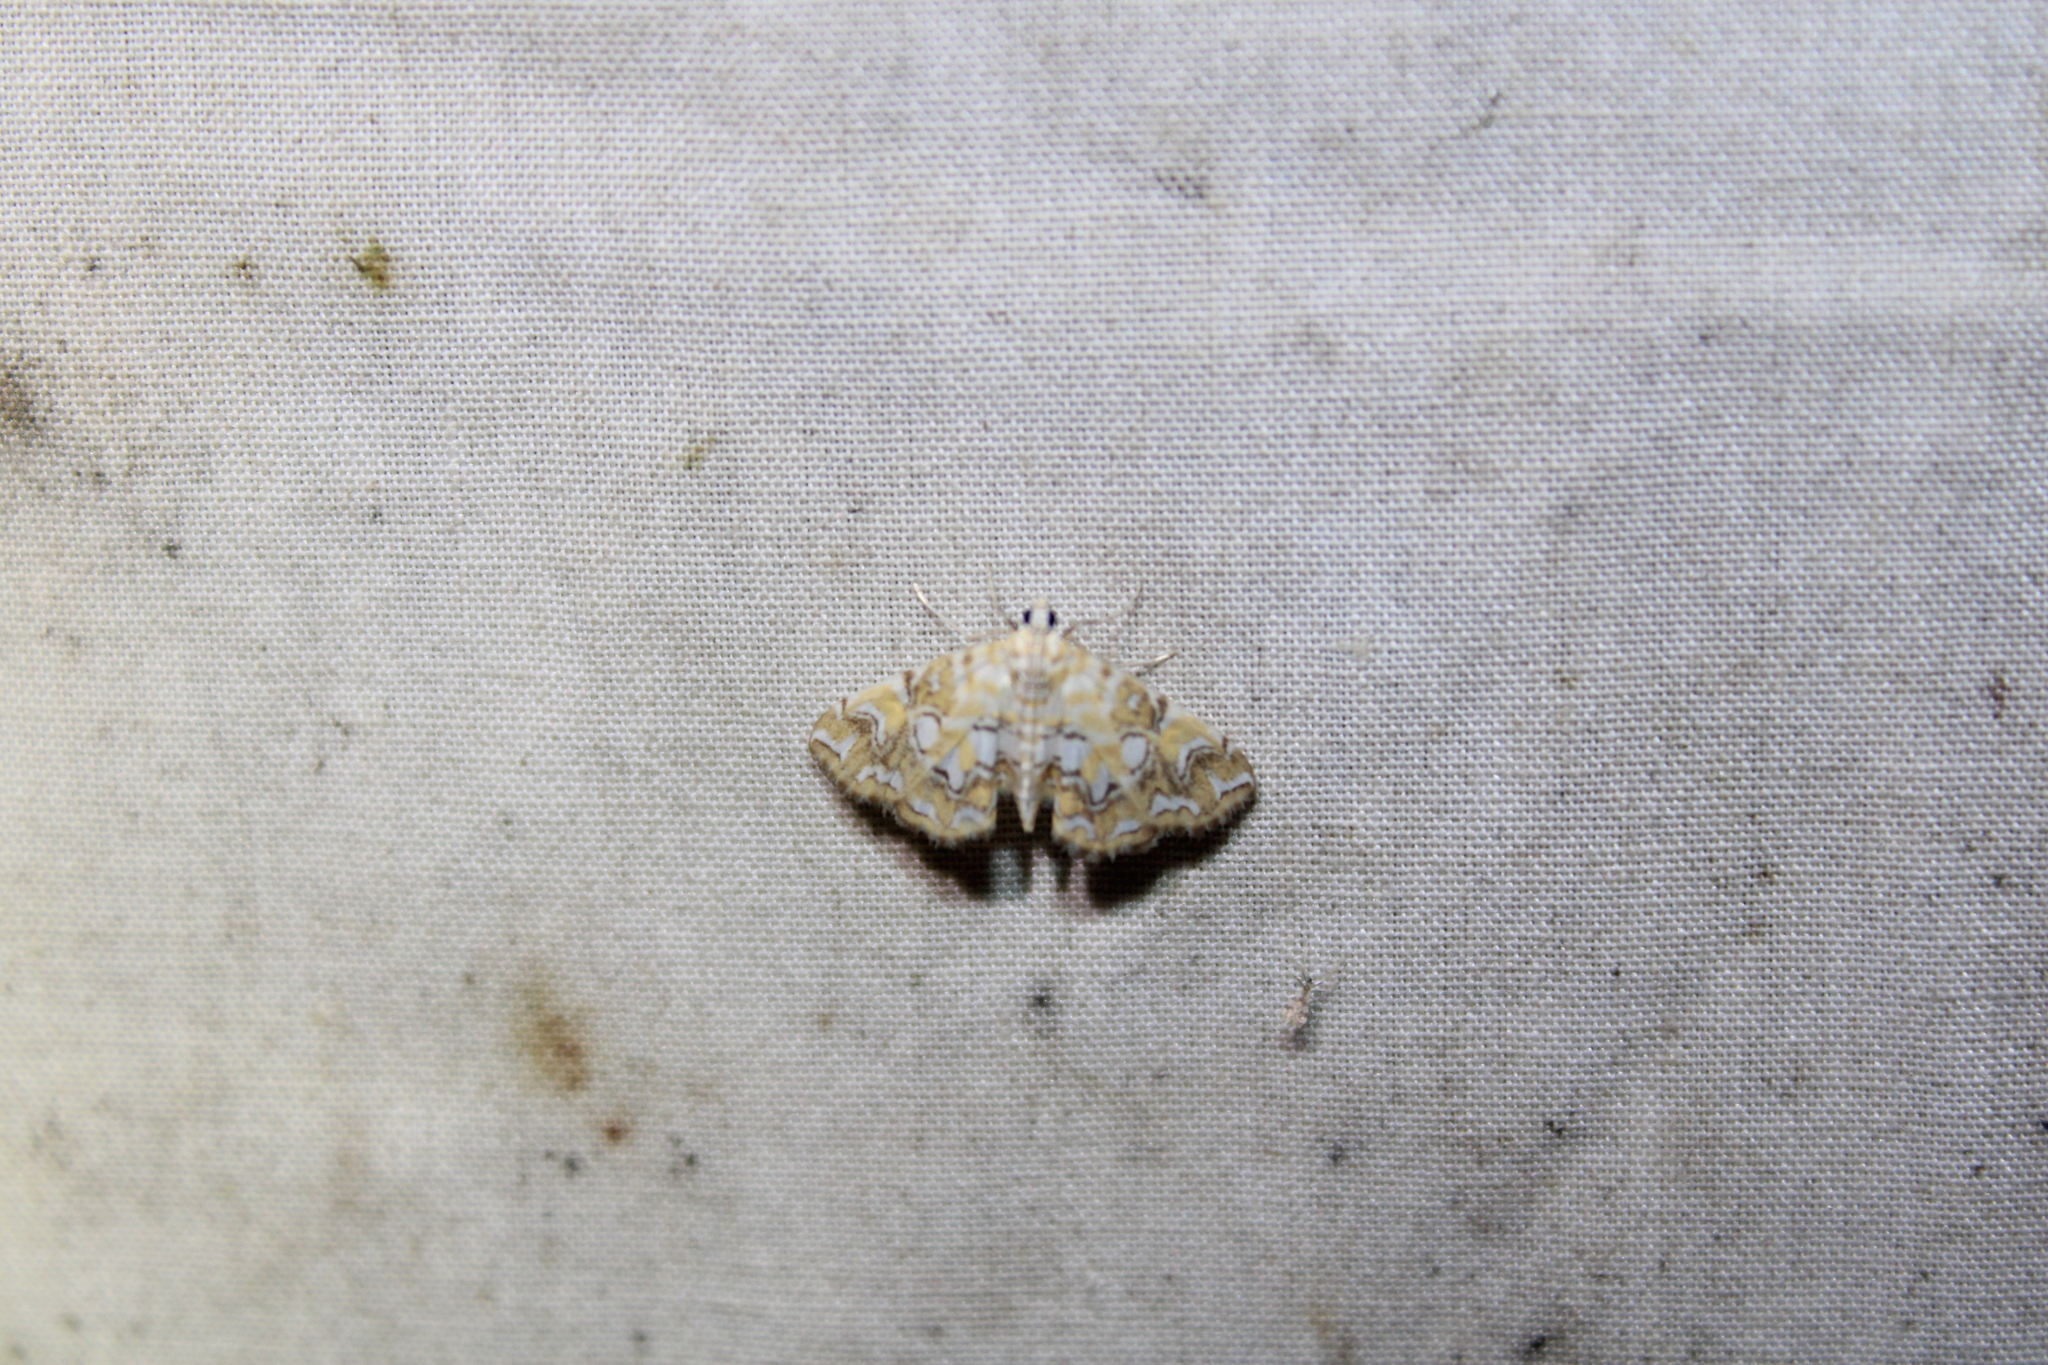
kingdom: Animalia
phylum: Arthropoda
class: Insecta
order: Lepidoptera
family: Crambidae
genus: Elophila
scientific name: Elophila icciusalis
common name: Pondside pyralid moth
